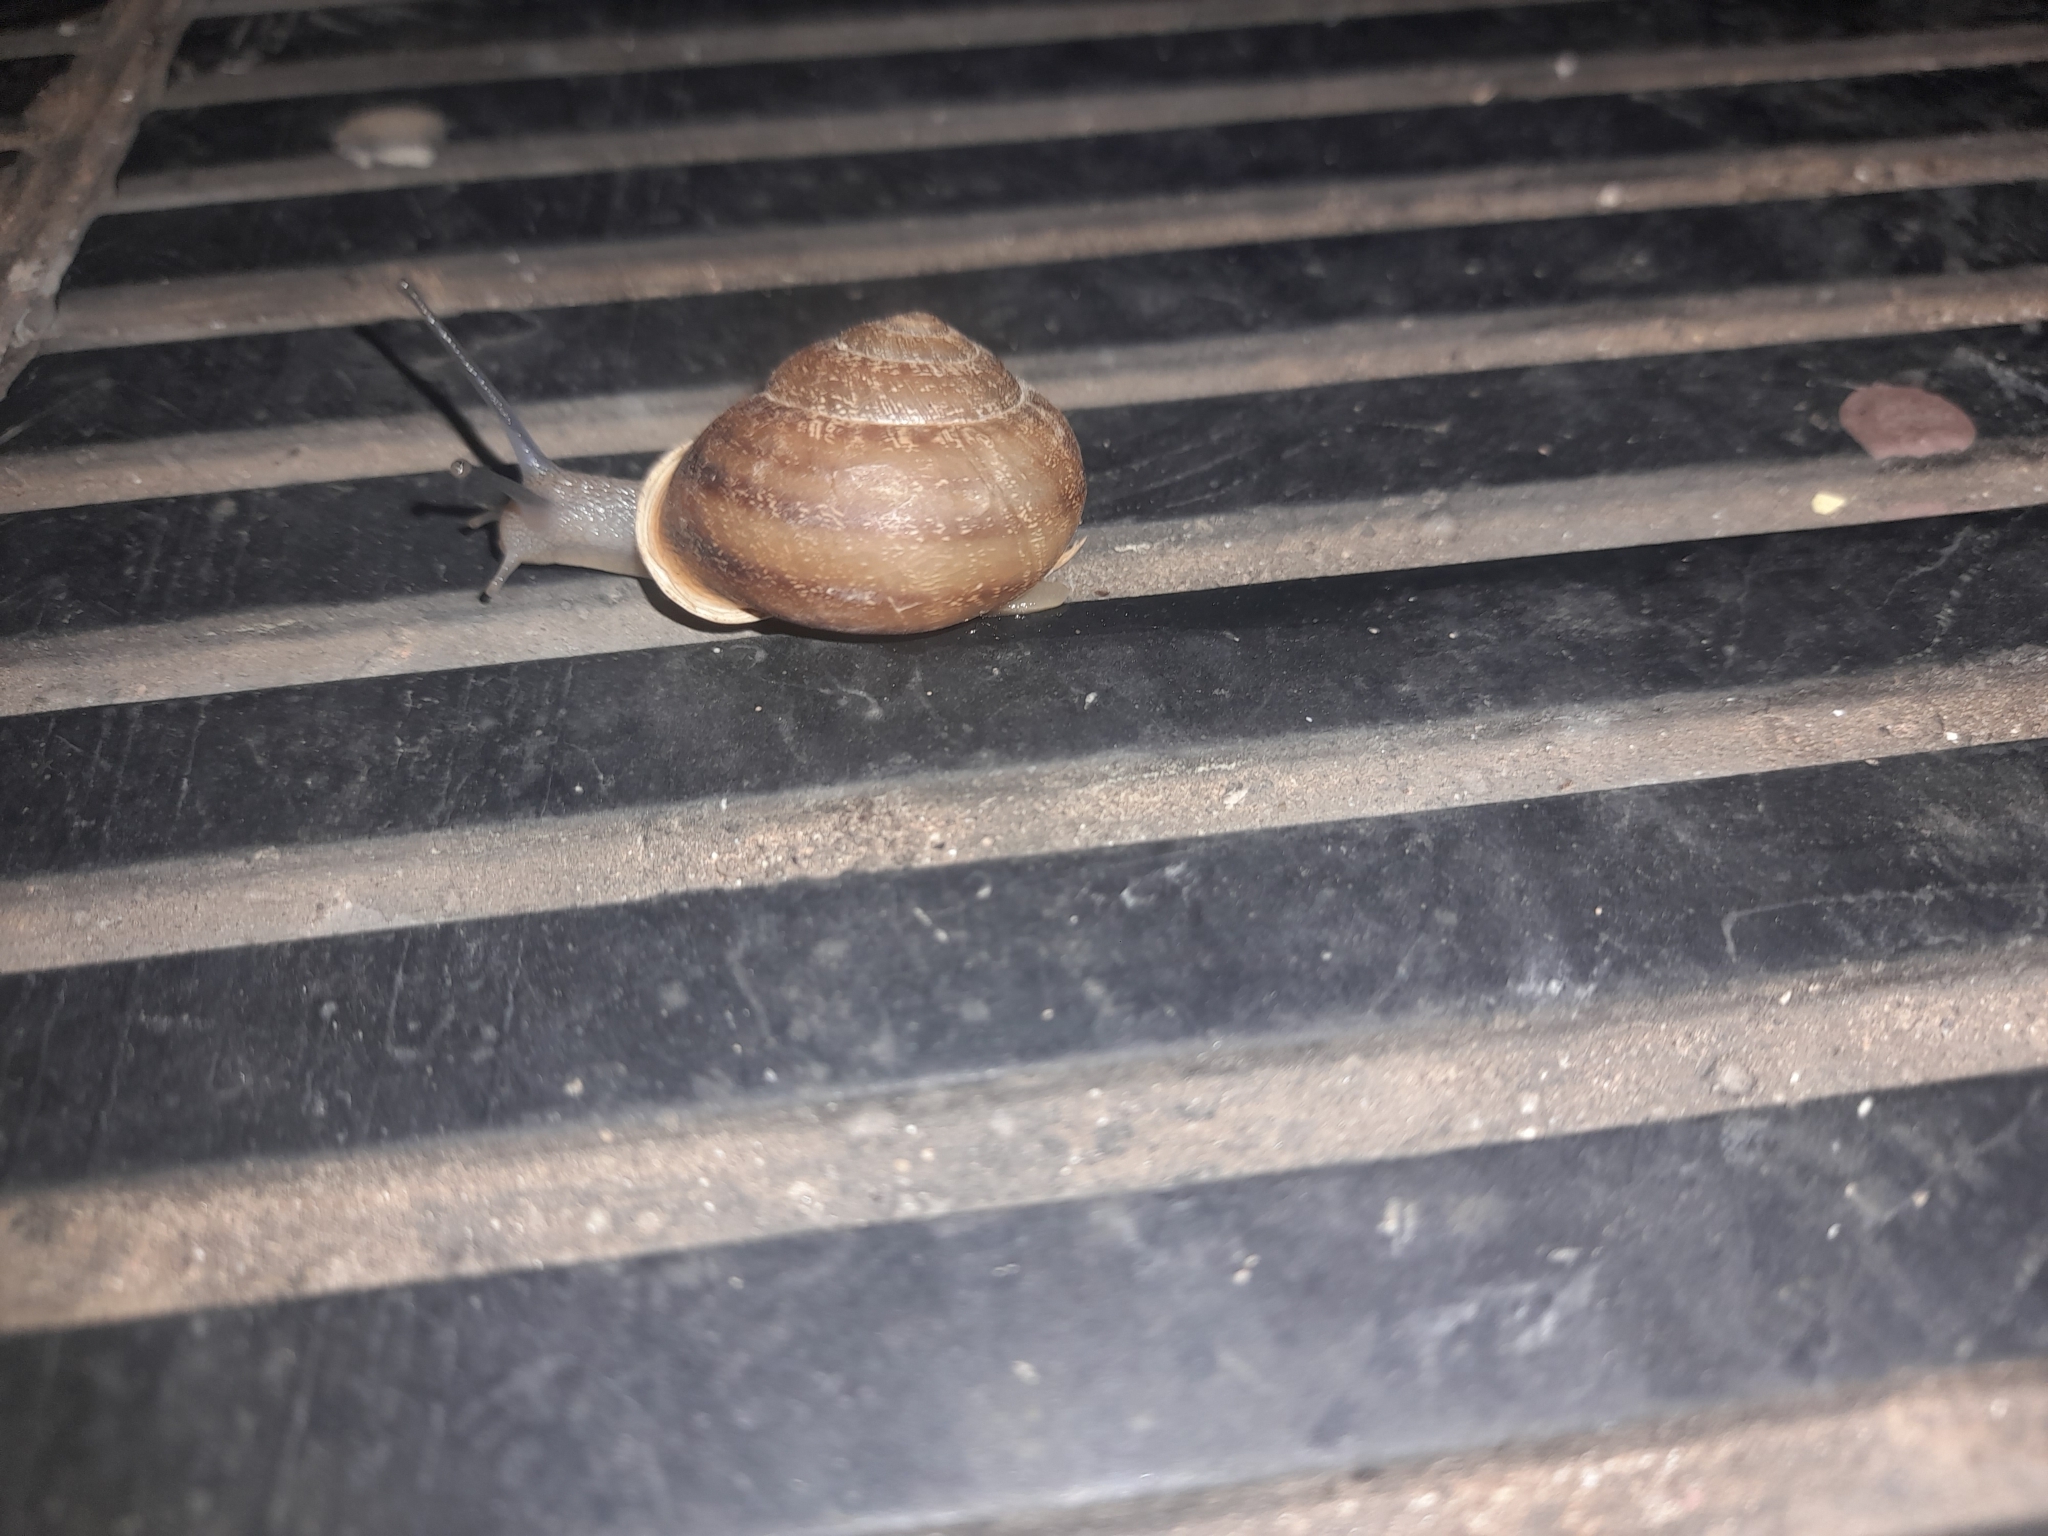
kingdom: Animalia
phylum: Mollusca
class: Gastropoda
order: Stylommatophora
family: Helicidae
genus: Eobania
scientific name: Eobania vermiculata
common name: Chocolateband snail
